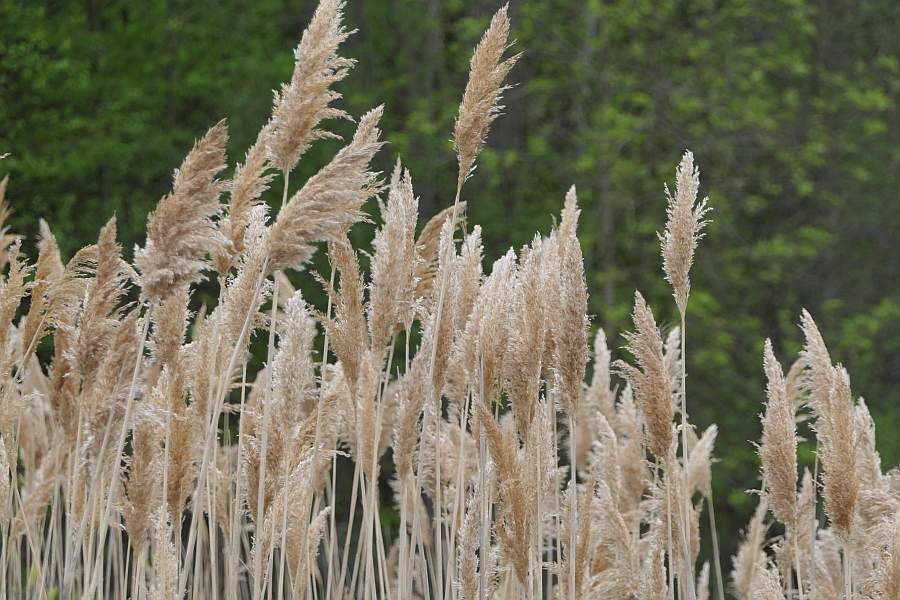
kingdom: Plantae
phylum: Tracheophyta
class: Liliopsida
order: Poales
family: Poaceae
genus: Phragmites
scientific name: Phragmites australis
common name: Common reed
